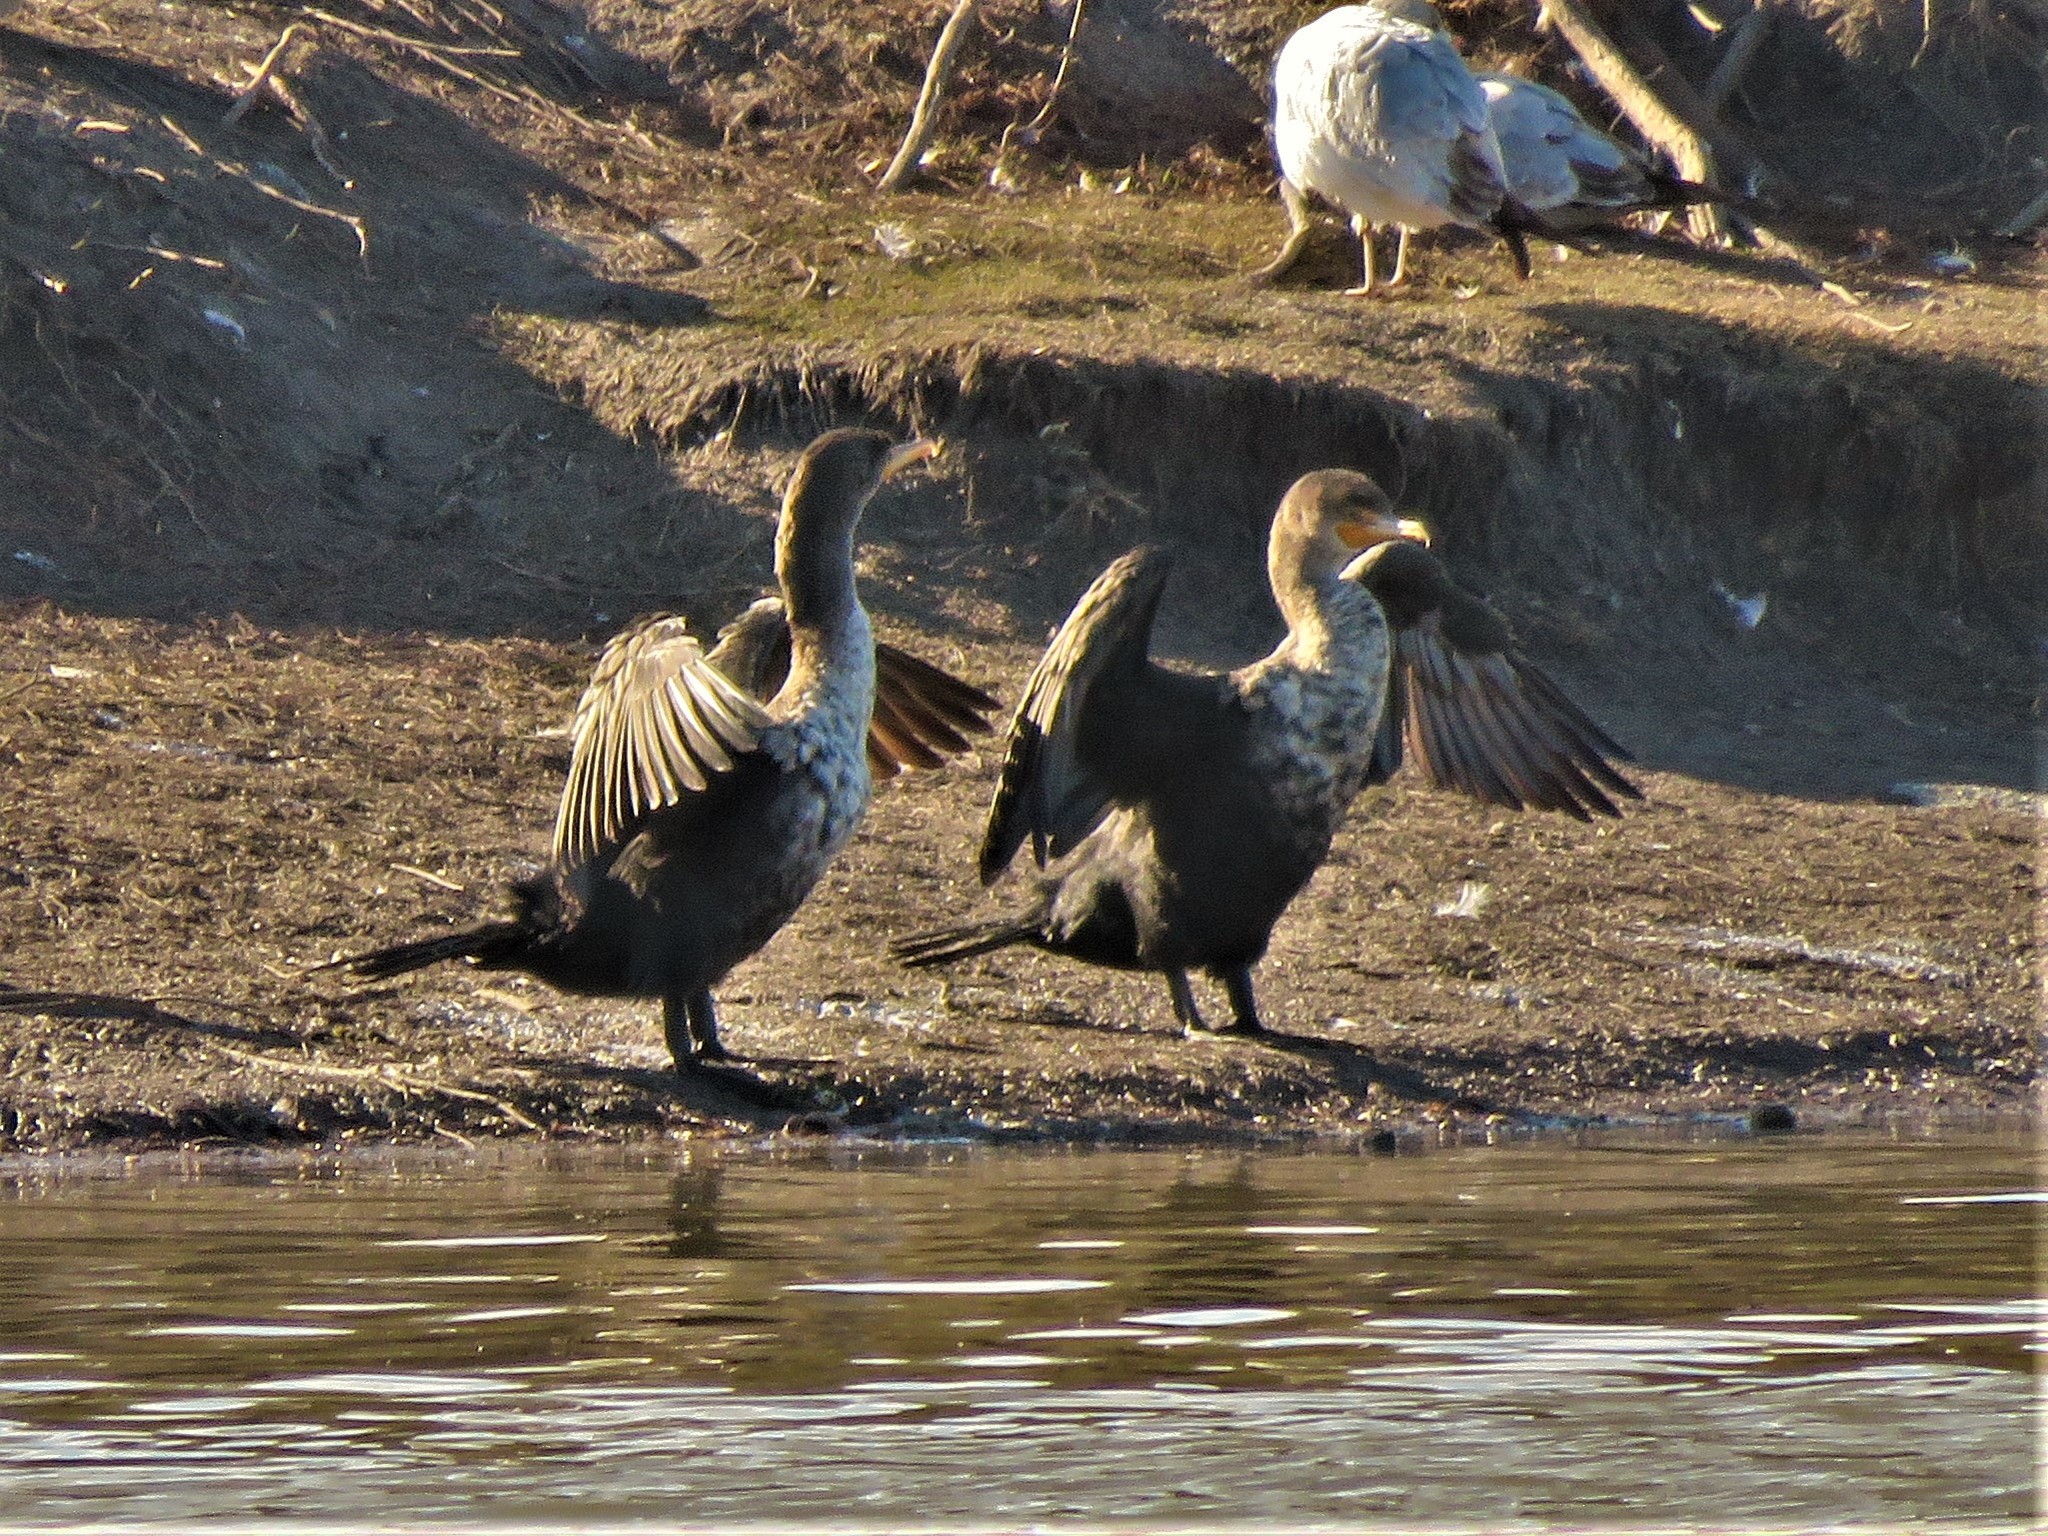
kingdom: Animalia
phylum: Chordata
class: Aves
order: Suliformes
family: Phalacrocoracidae
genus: Phalacrocorax
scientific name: Phalacrocorax auritus
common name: Double-crested cormorant
